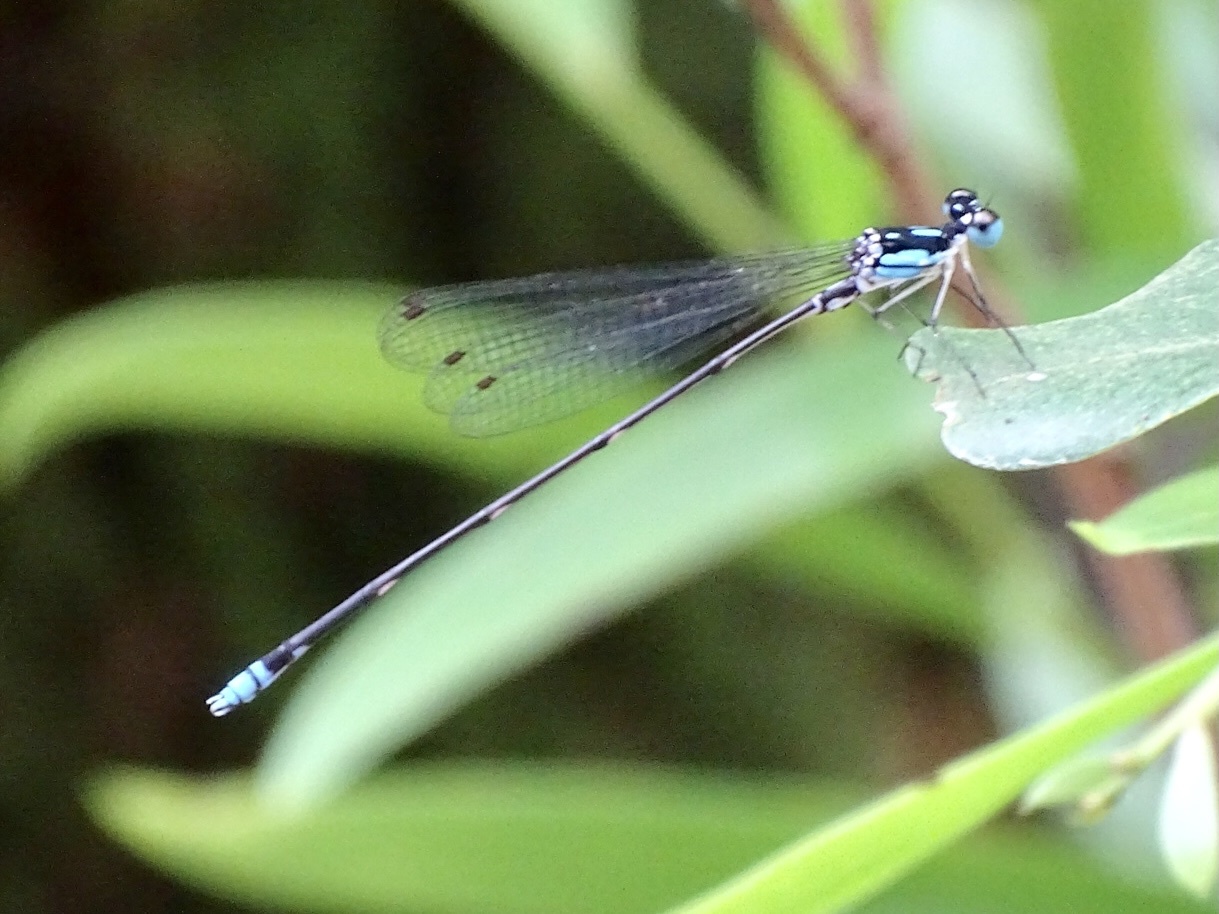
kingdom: Animalia
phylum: Arthropoda
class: Insecta
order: Odonata
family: Platycnemididae
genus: Coeliccia
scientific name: Coeliccia cyanomelas
